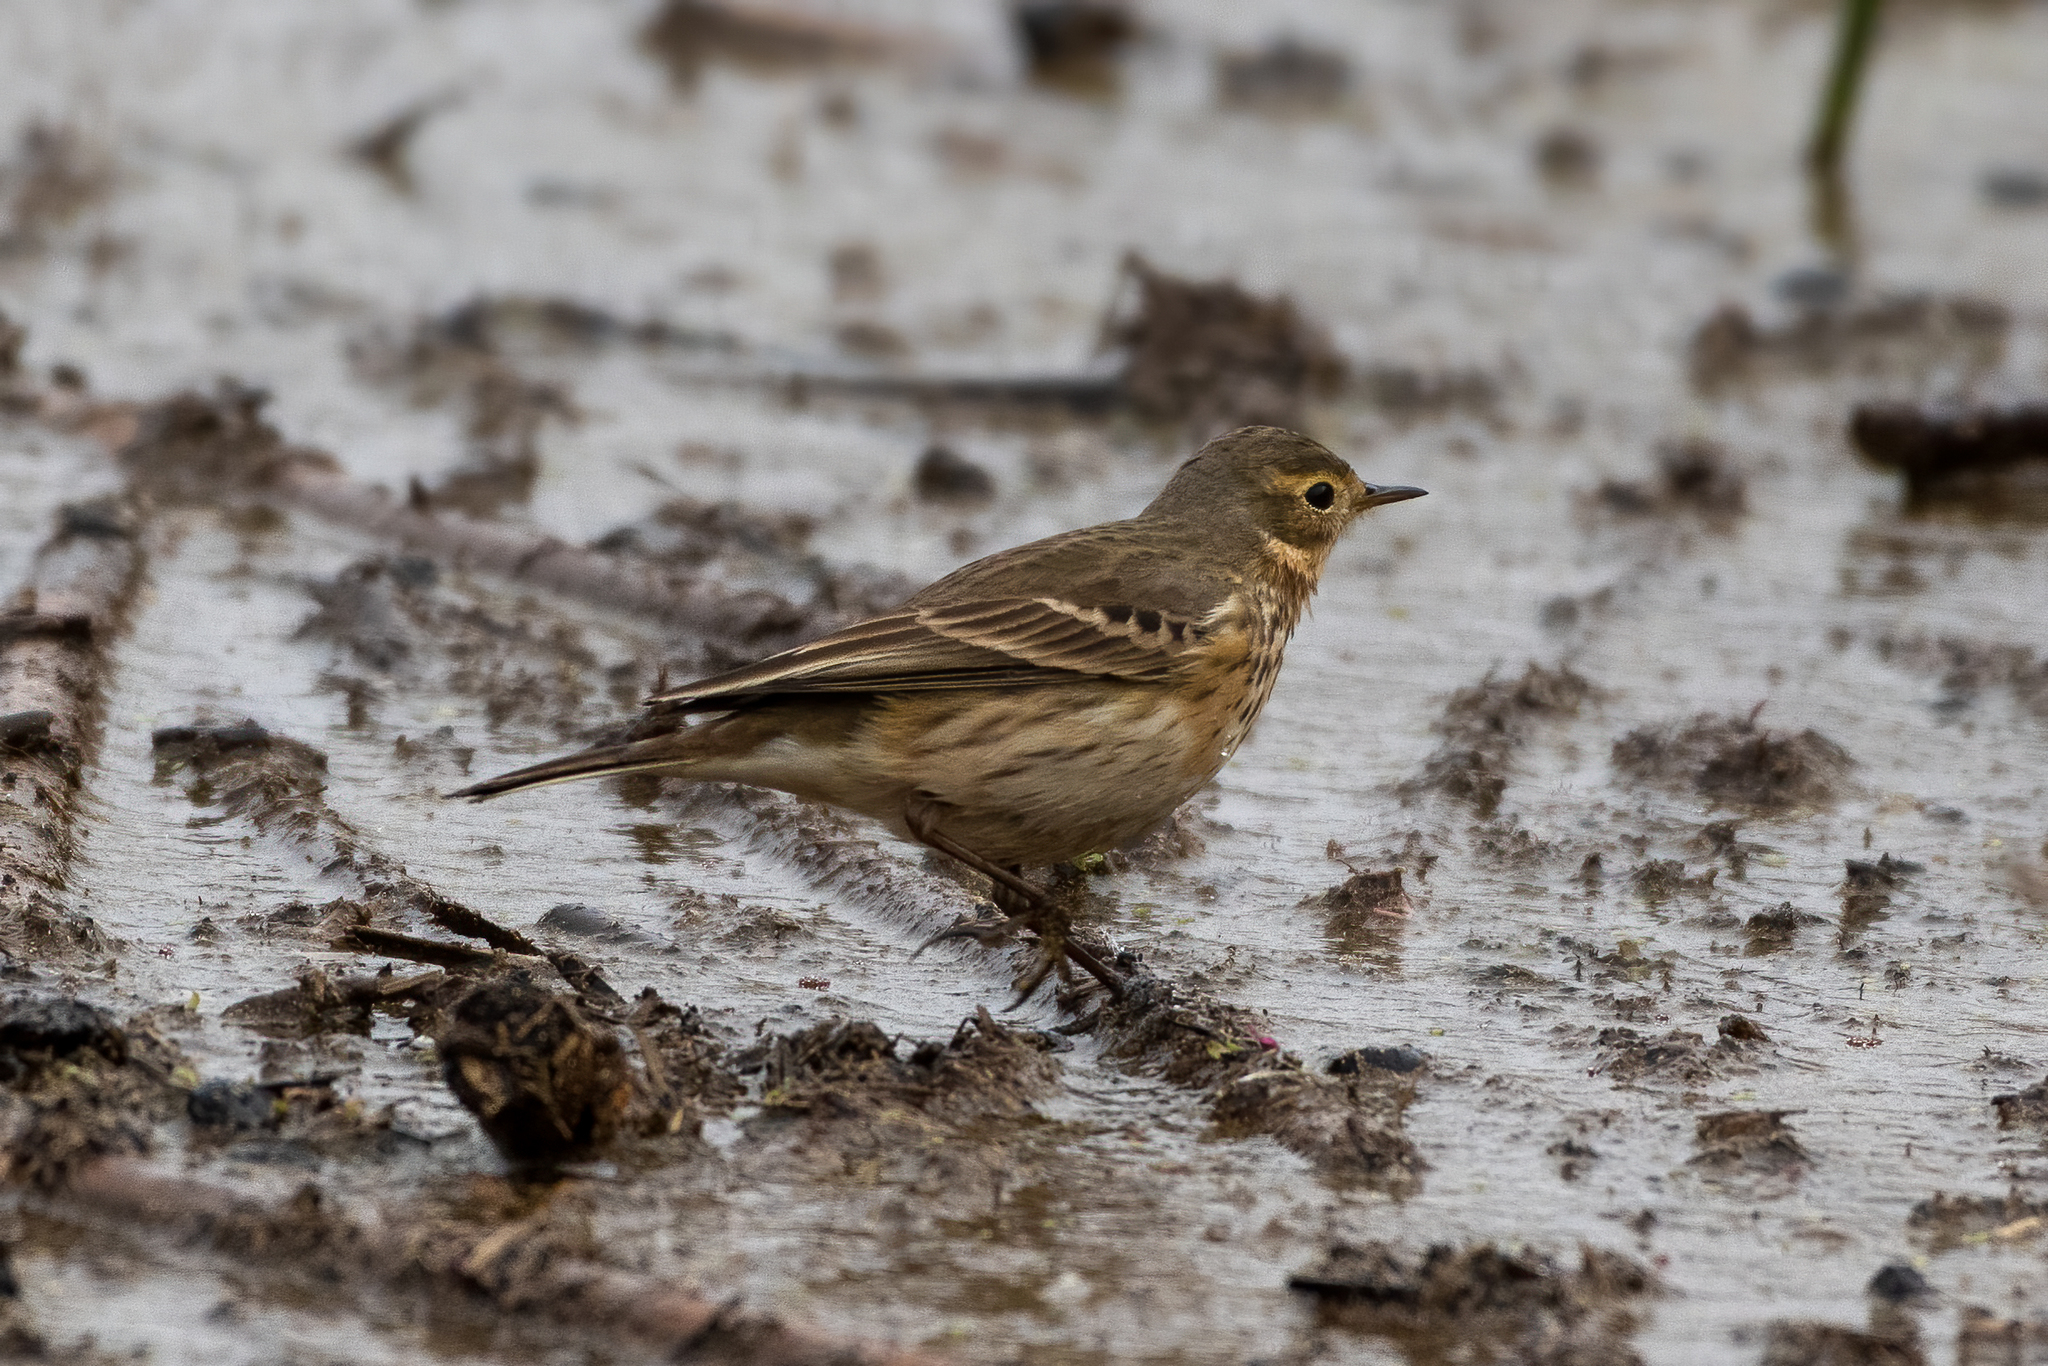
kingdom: Animalia
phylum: Chordata
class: Aves
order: Passeriformes
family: Motacillidae
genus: Anthus
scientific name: Anthus rubescens
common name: Buff-bellied pipit
